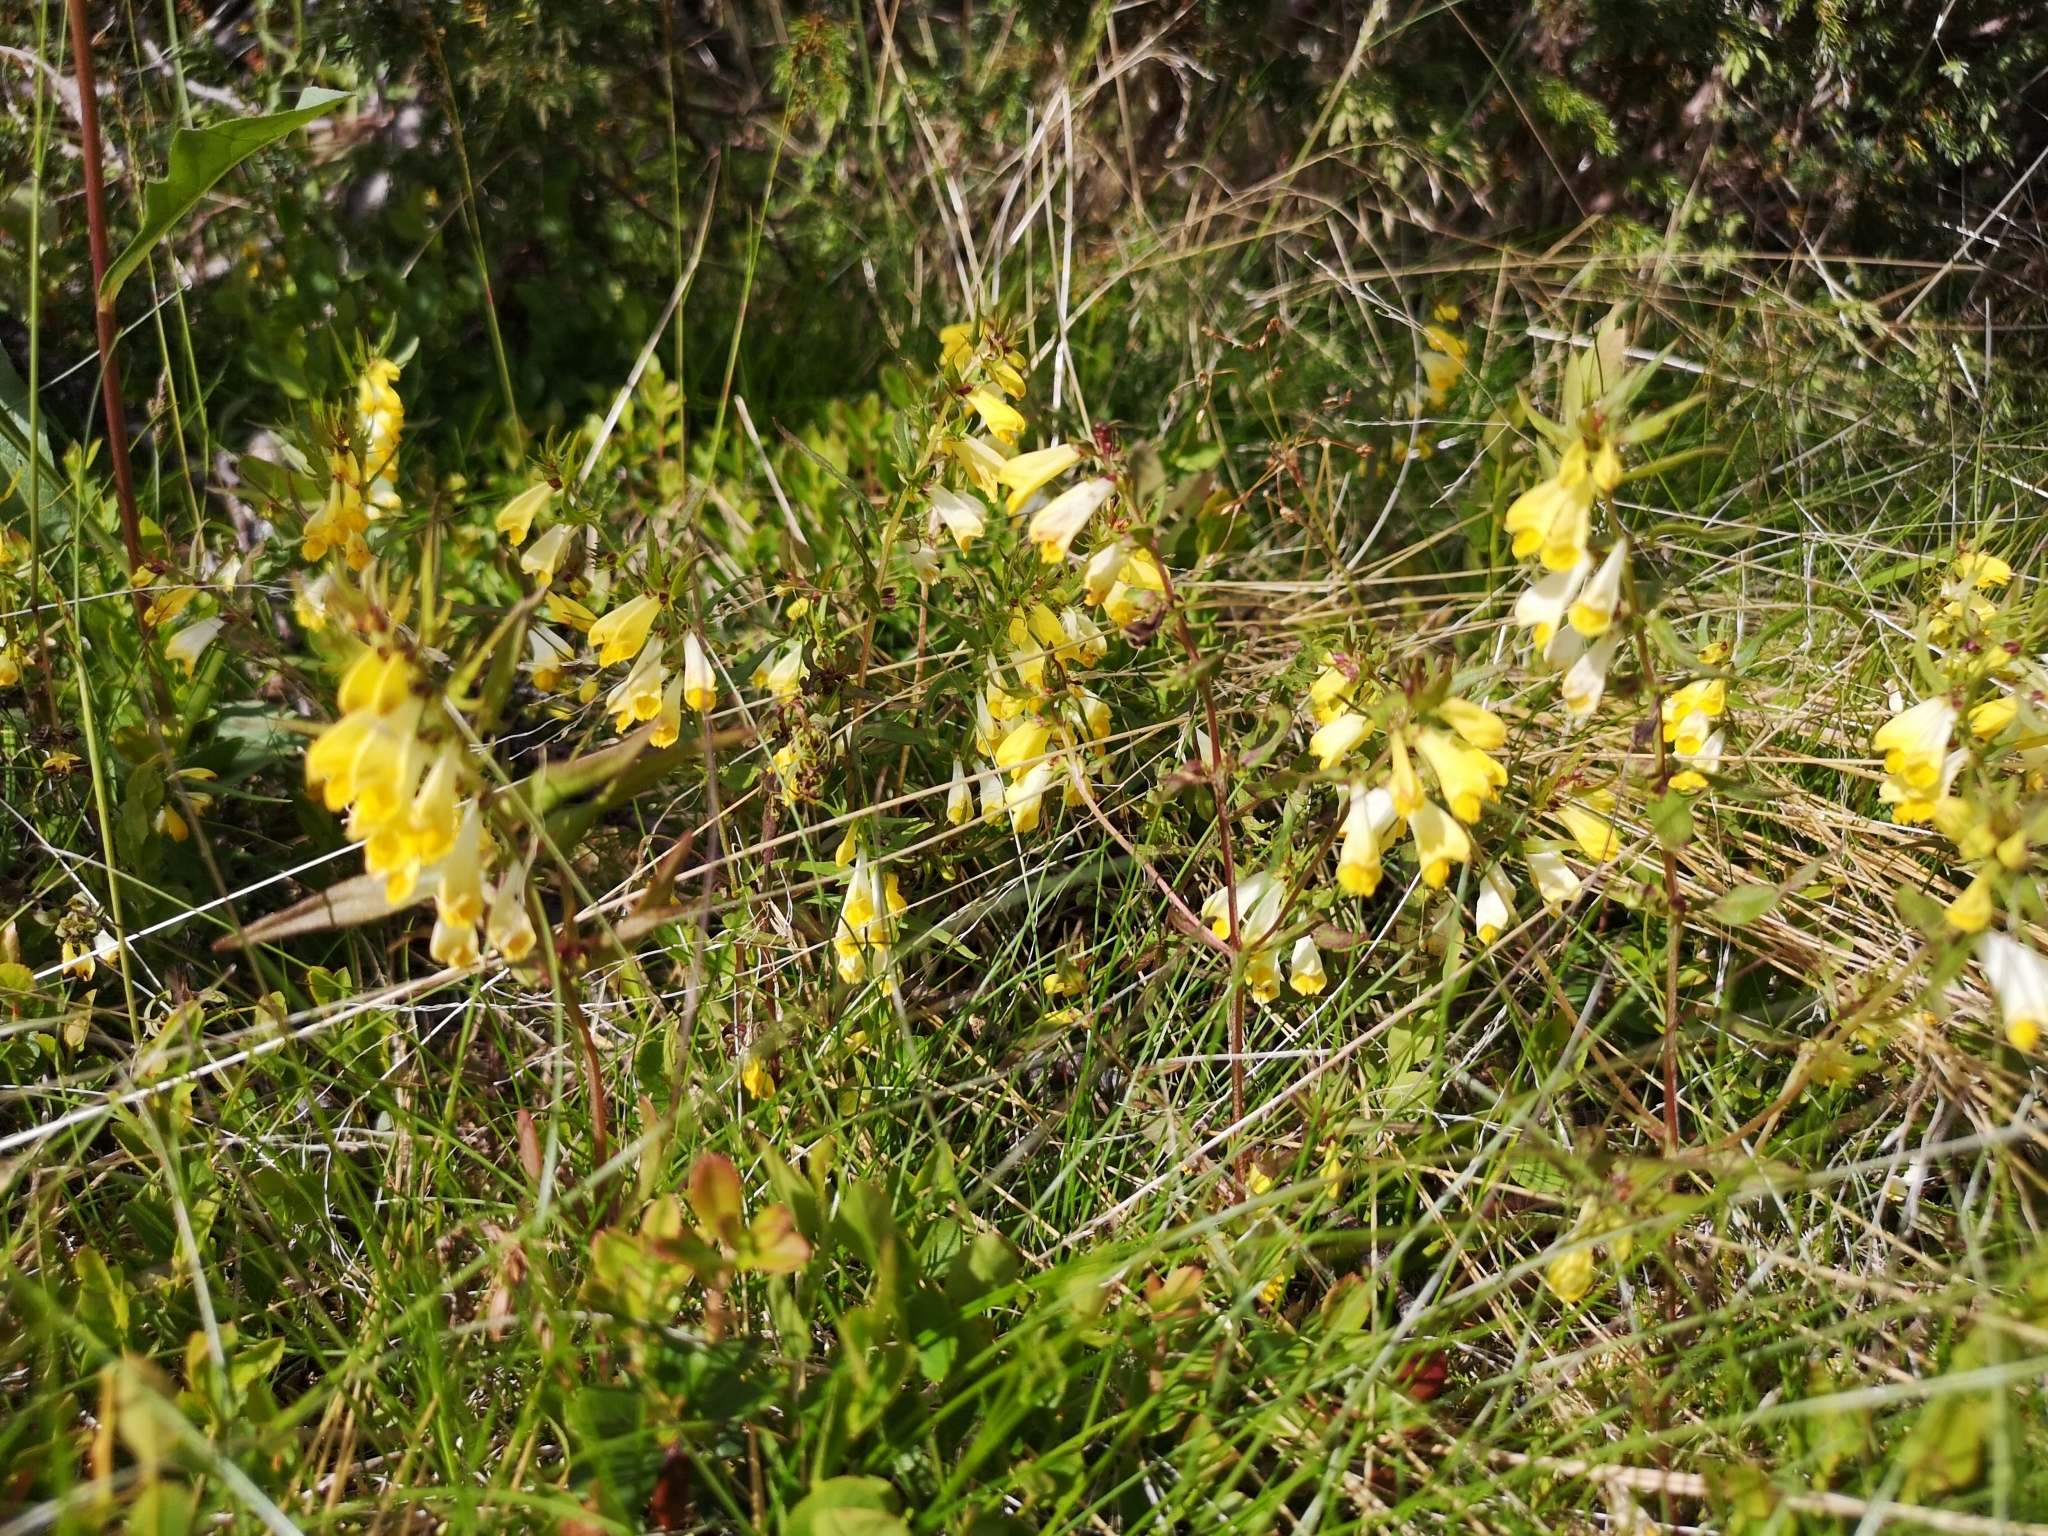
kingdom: Plantae
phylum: Tracheophyta
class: Magnoliopsida
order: Lamiales
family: Orobanchaceae
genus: Melampyrum
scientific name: Melampyrum pratense
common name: Common cow-wheat
